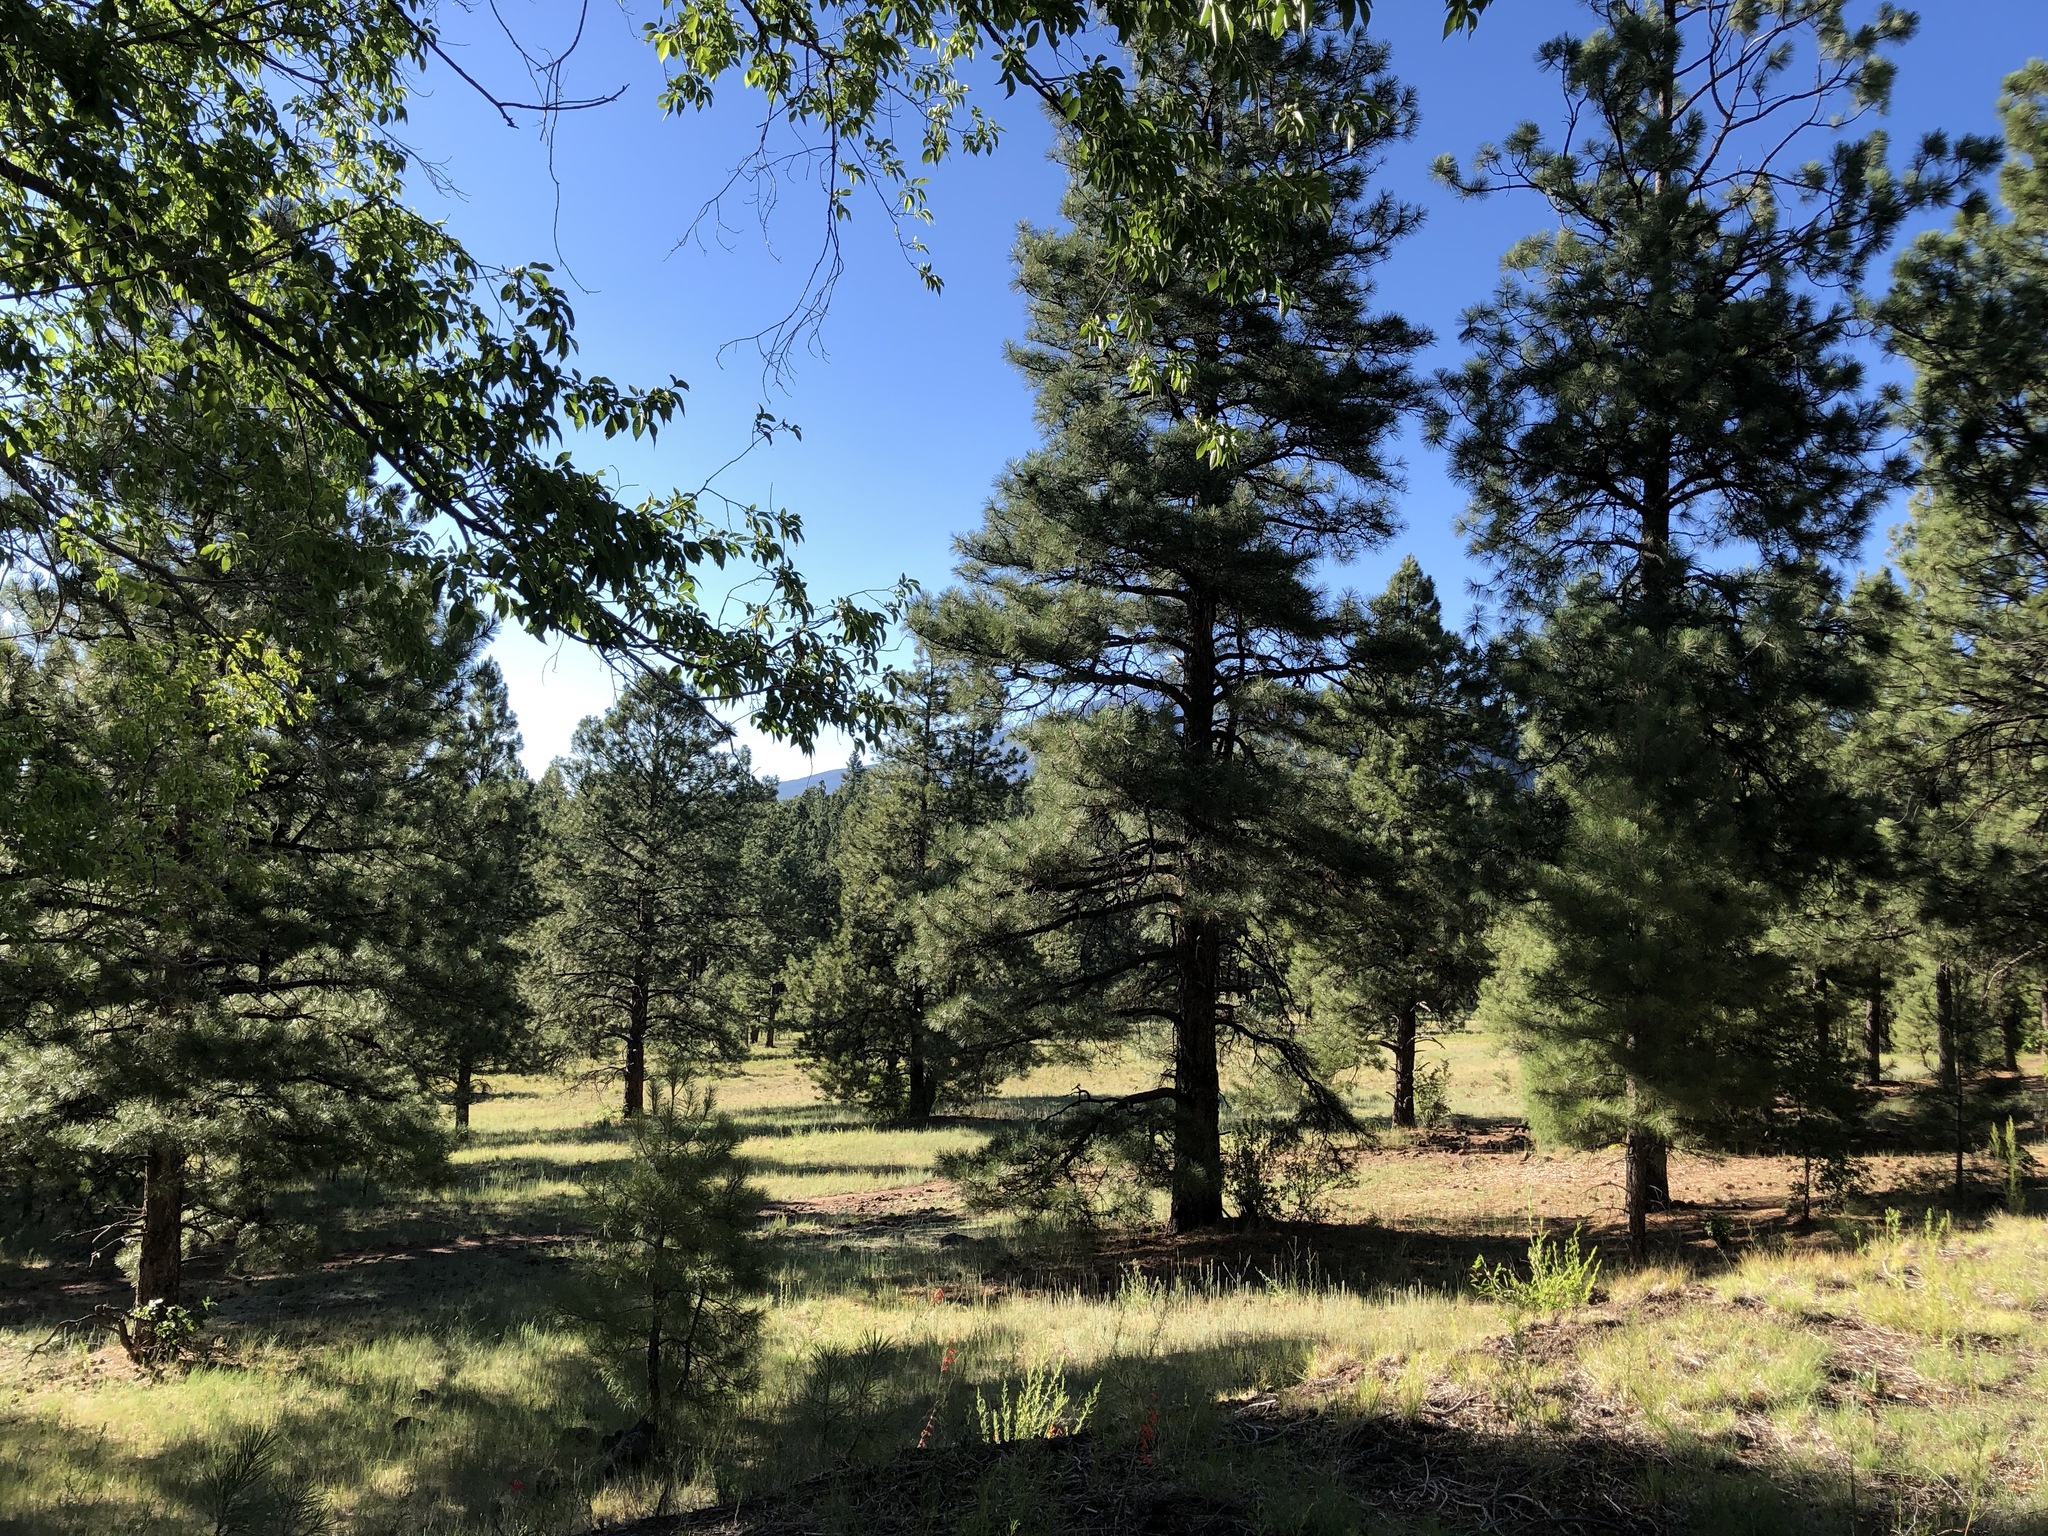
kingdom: Plantae
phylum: Tracheophyta
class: Pinopsida
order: Pinales
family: Pinaceae
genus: Pinus
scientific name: Pinus ponderosa
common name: Western yellow-pine
